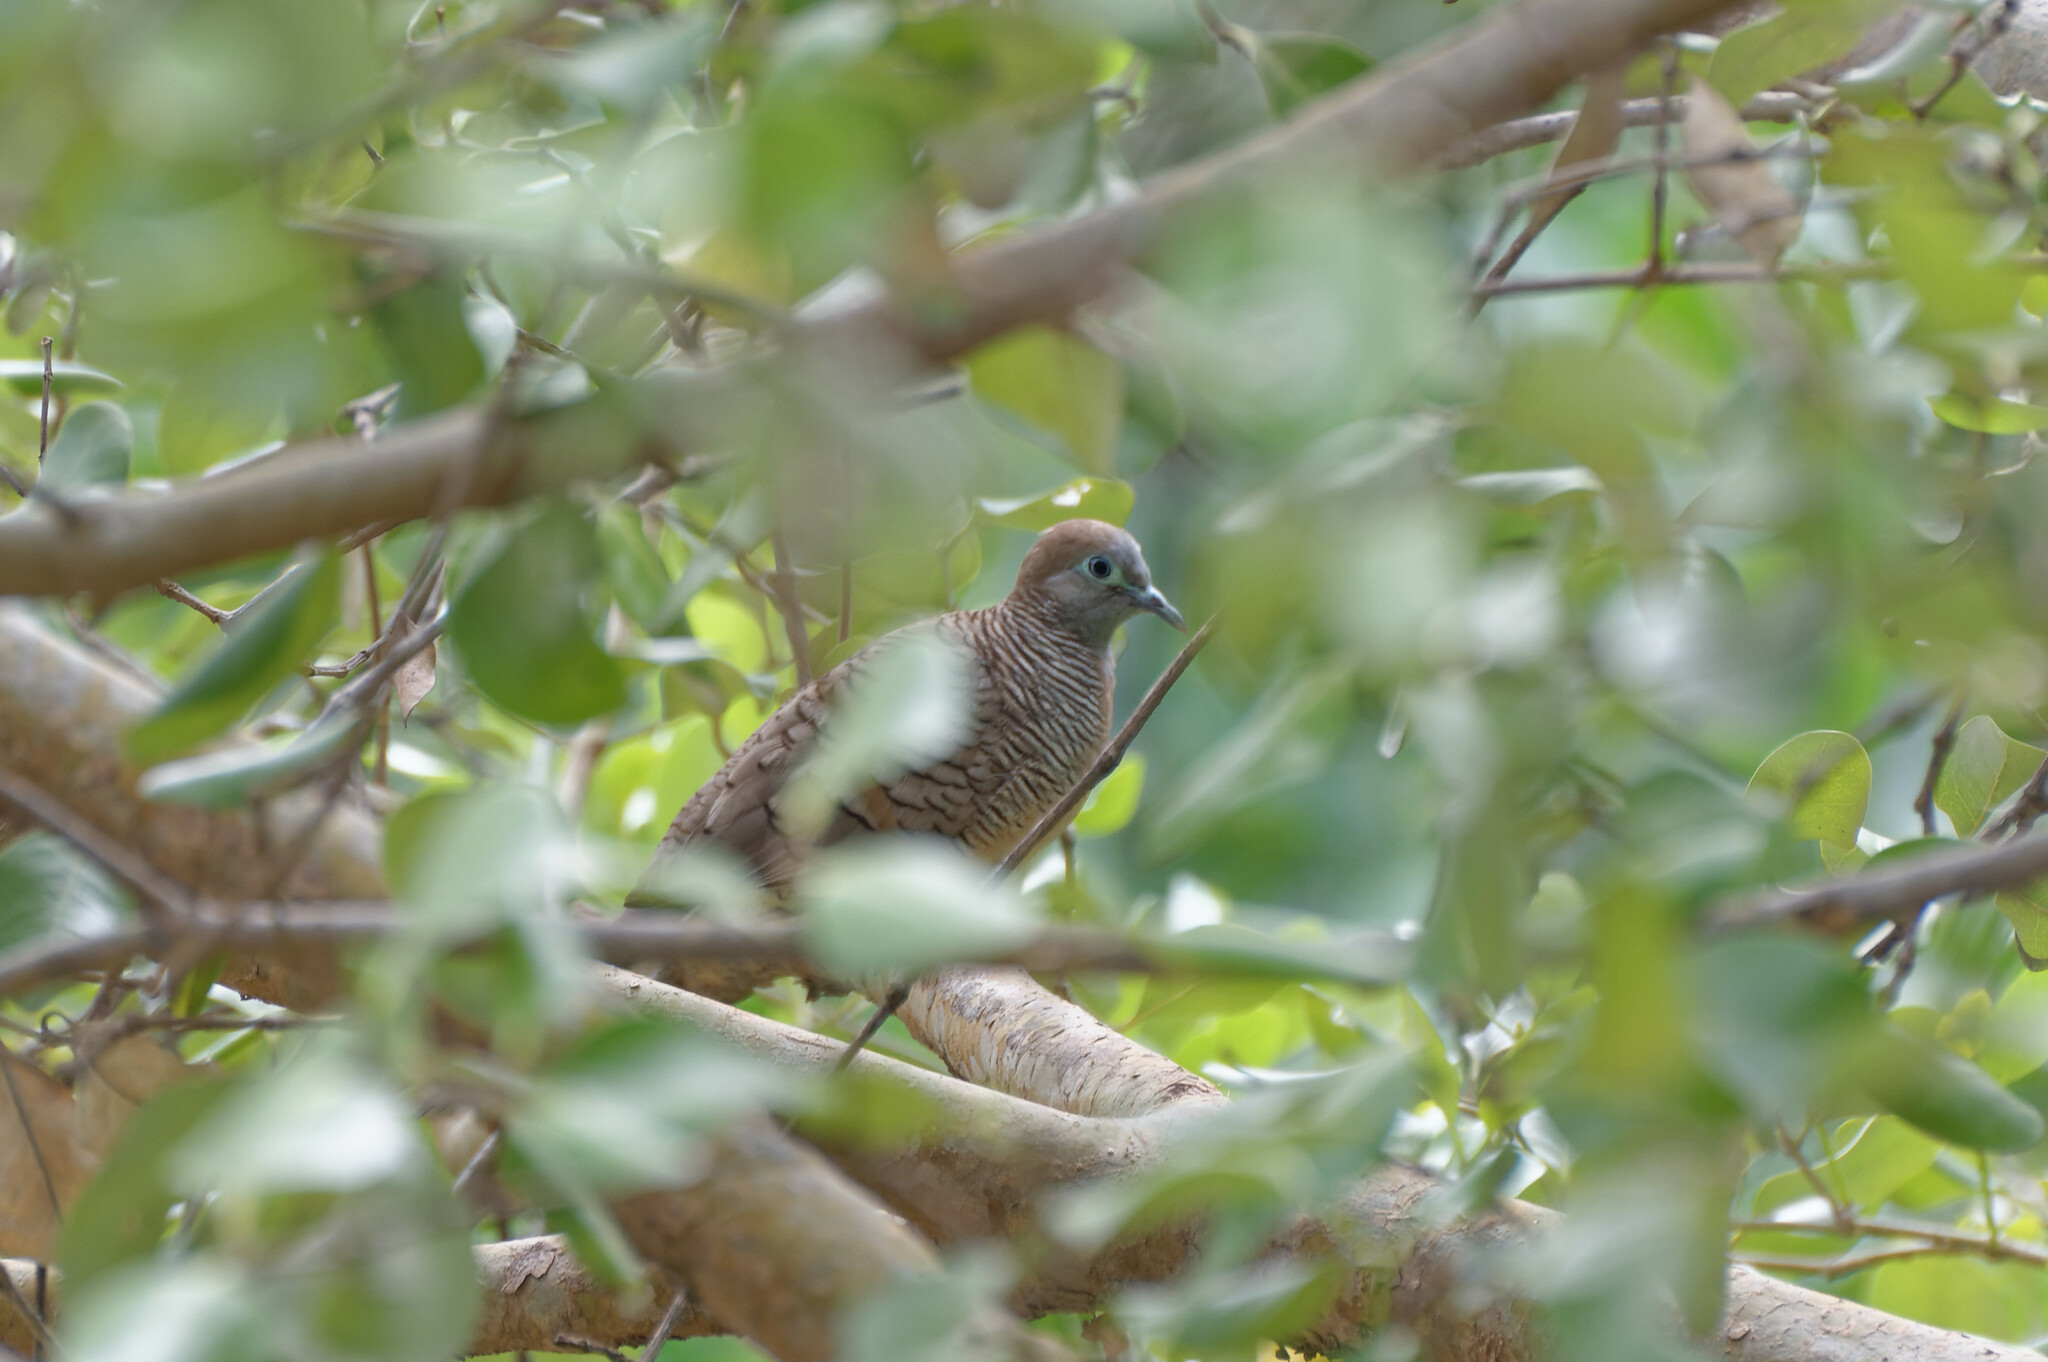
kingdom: Animalia
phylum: Chordata
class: Aves
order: Columbiformes
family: Columbidae
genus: Geopelia
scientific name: Geopelia striata
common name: Zebra dove
